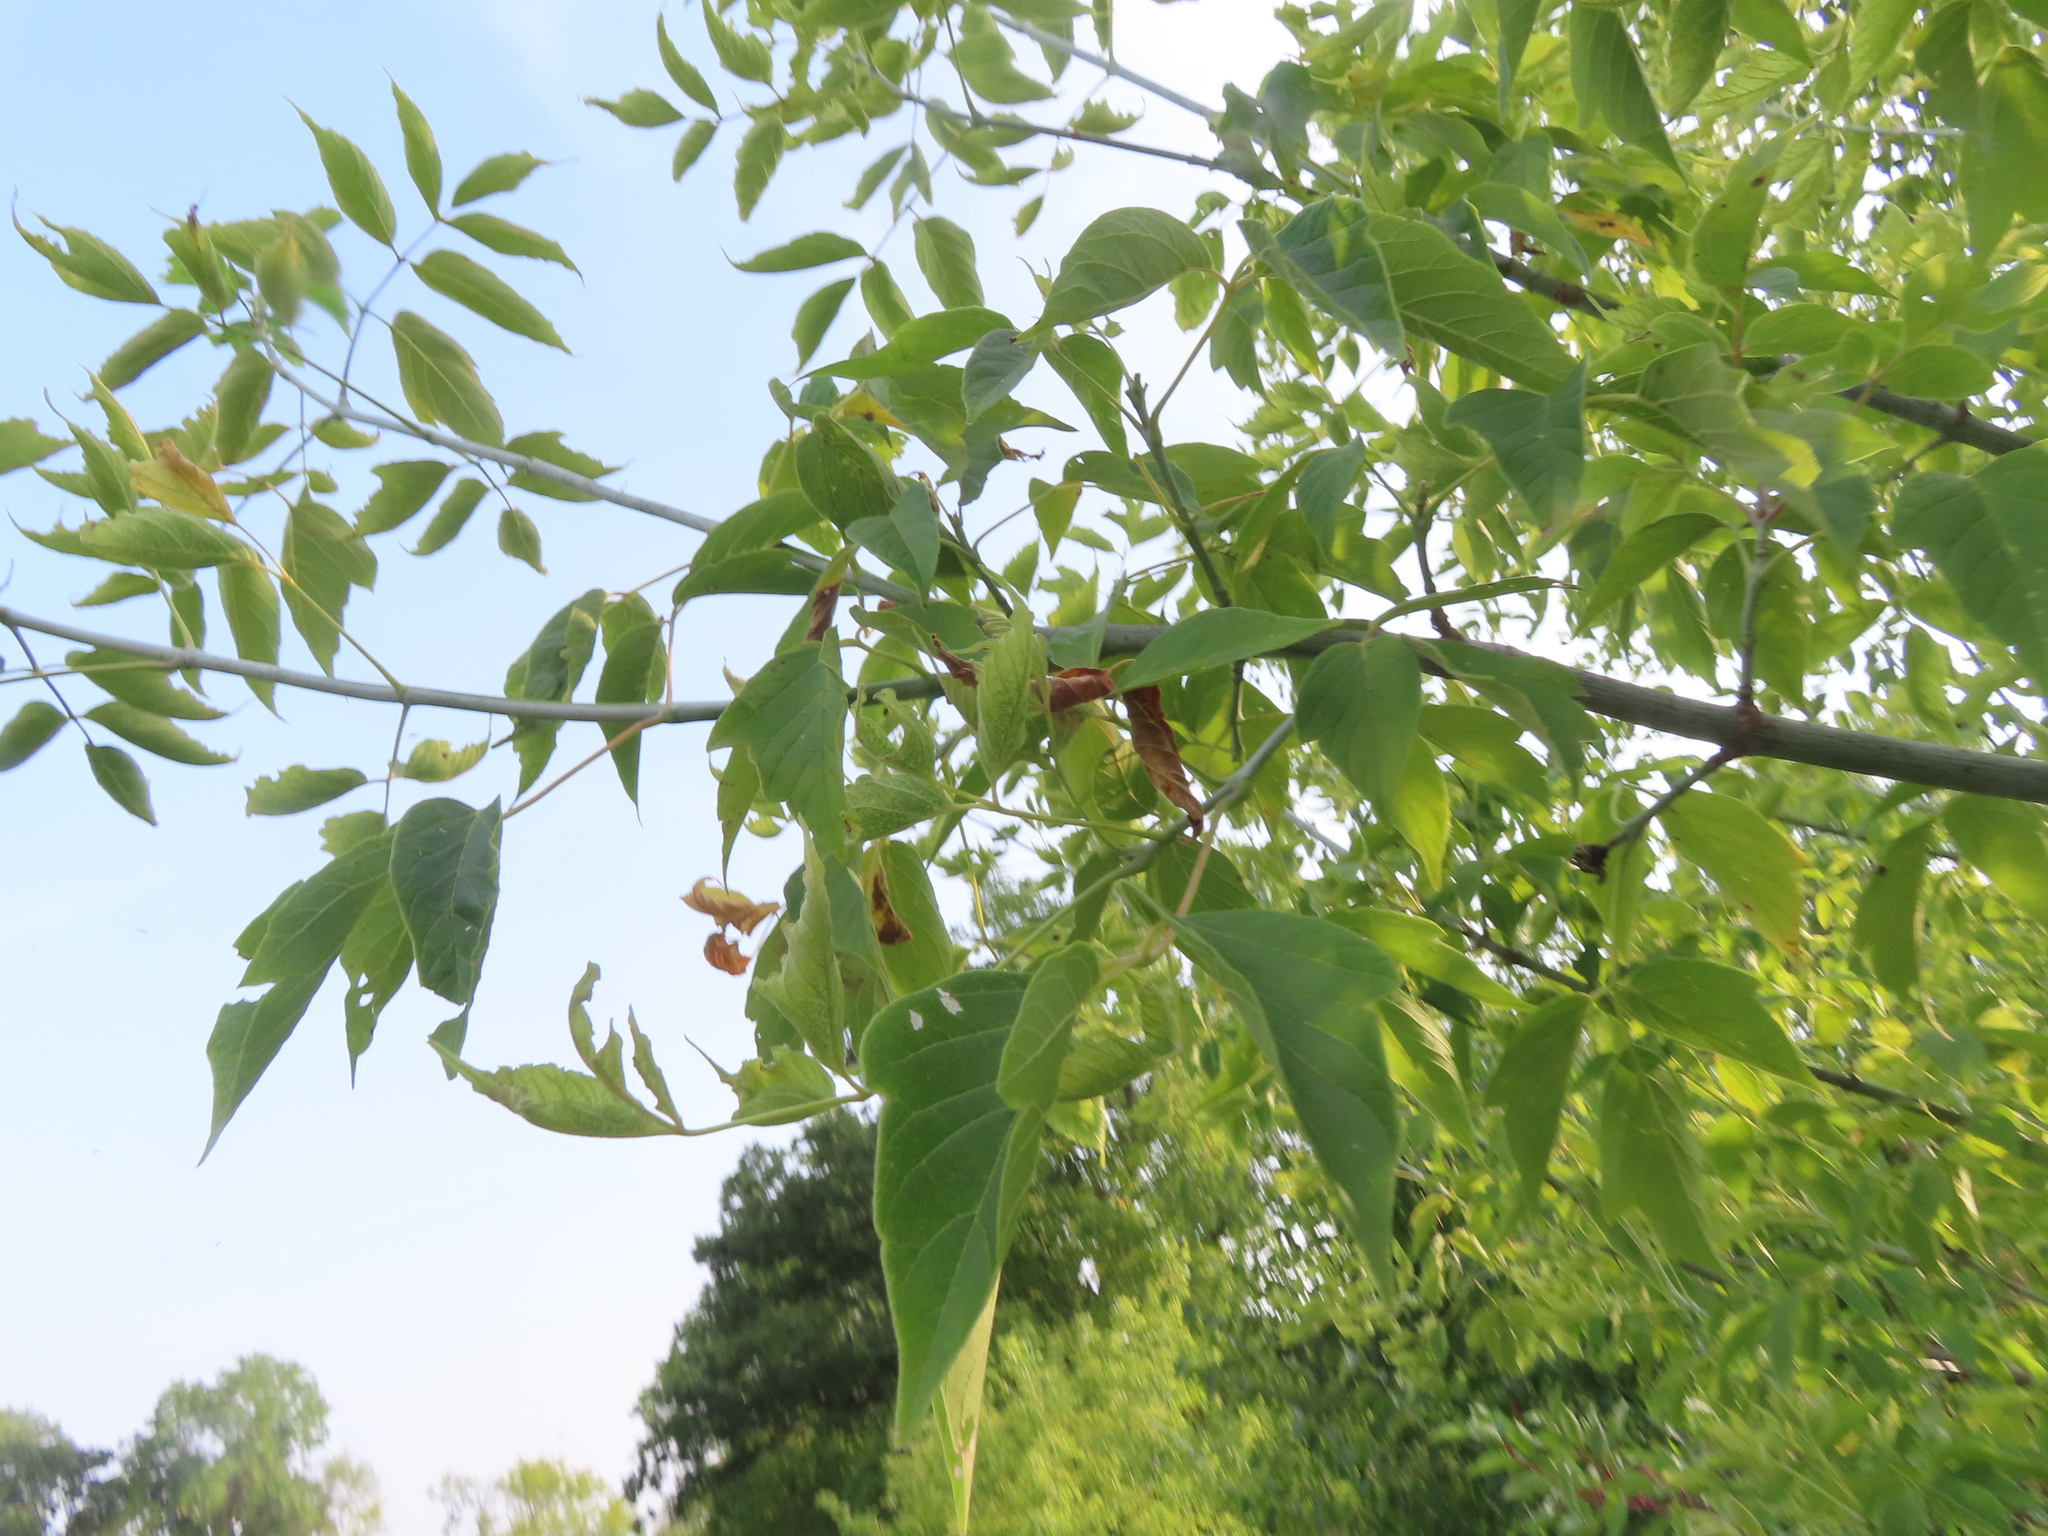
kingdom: Plantae
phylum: Tracheophyta
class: Magnoliopsida
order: Sapindales
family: Sapindaceae
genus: Acer
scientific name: Acer negundo
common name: Ashleaf maple
